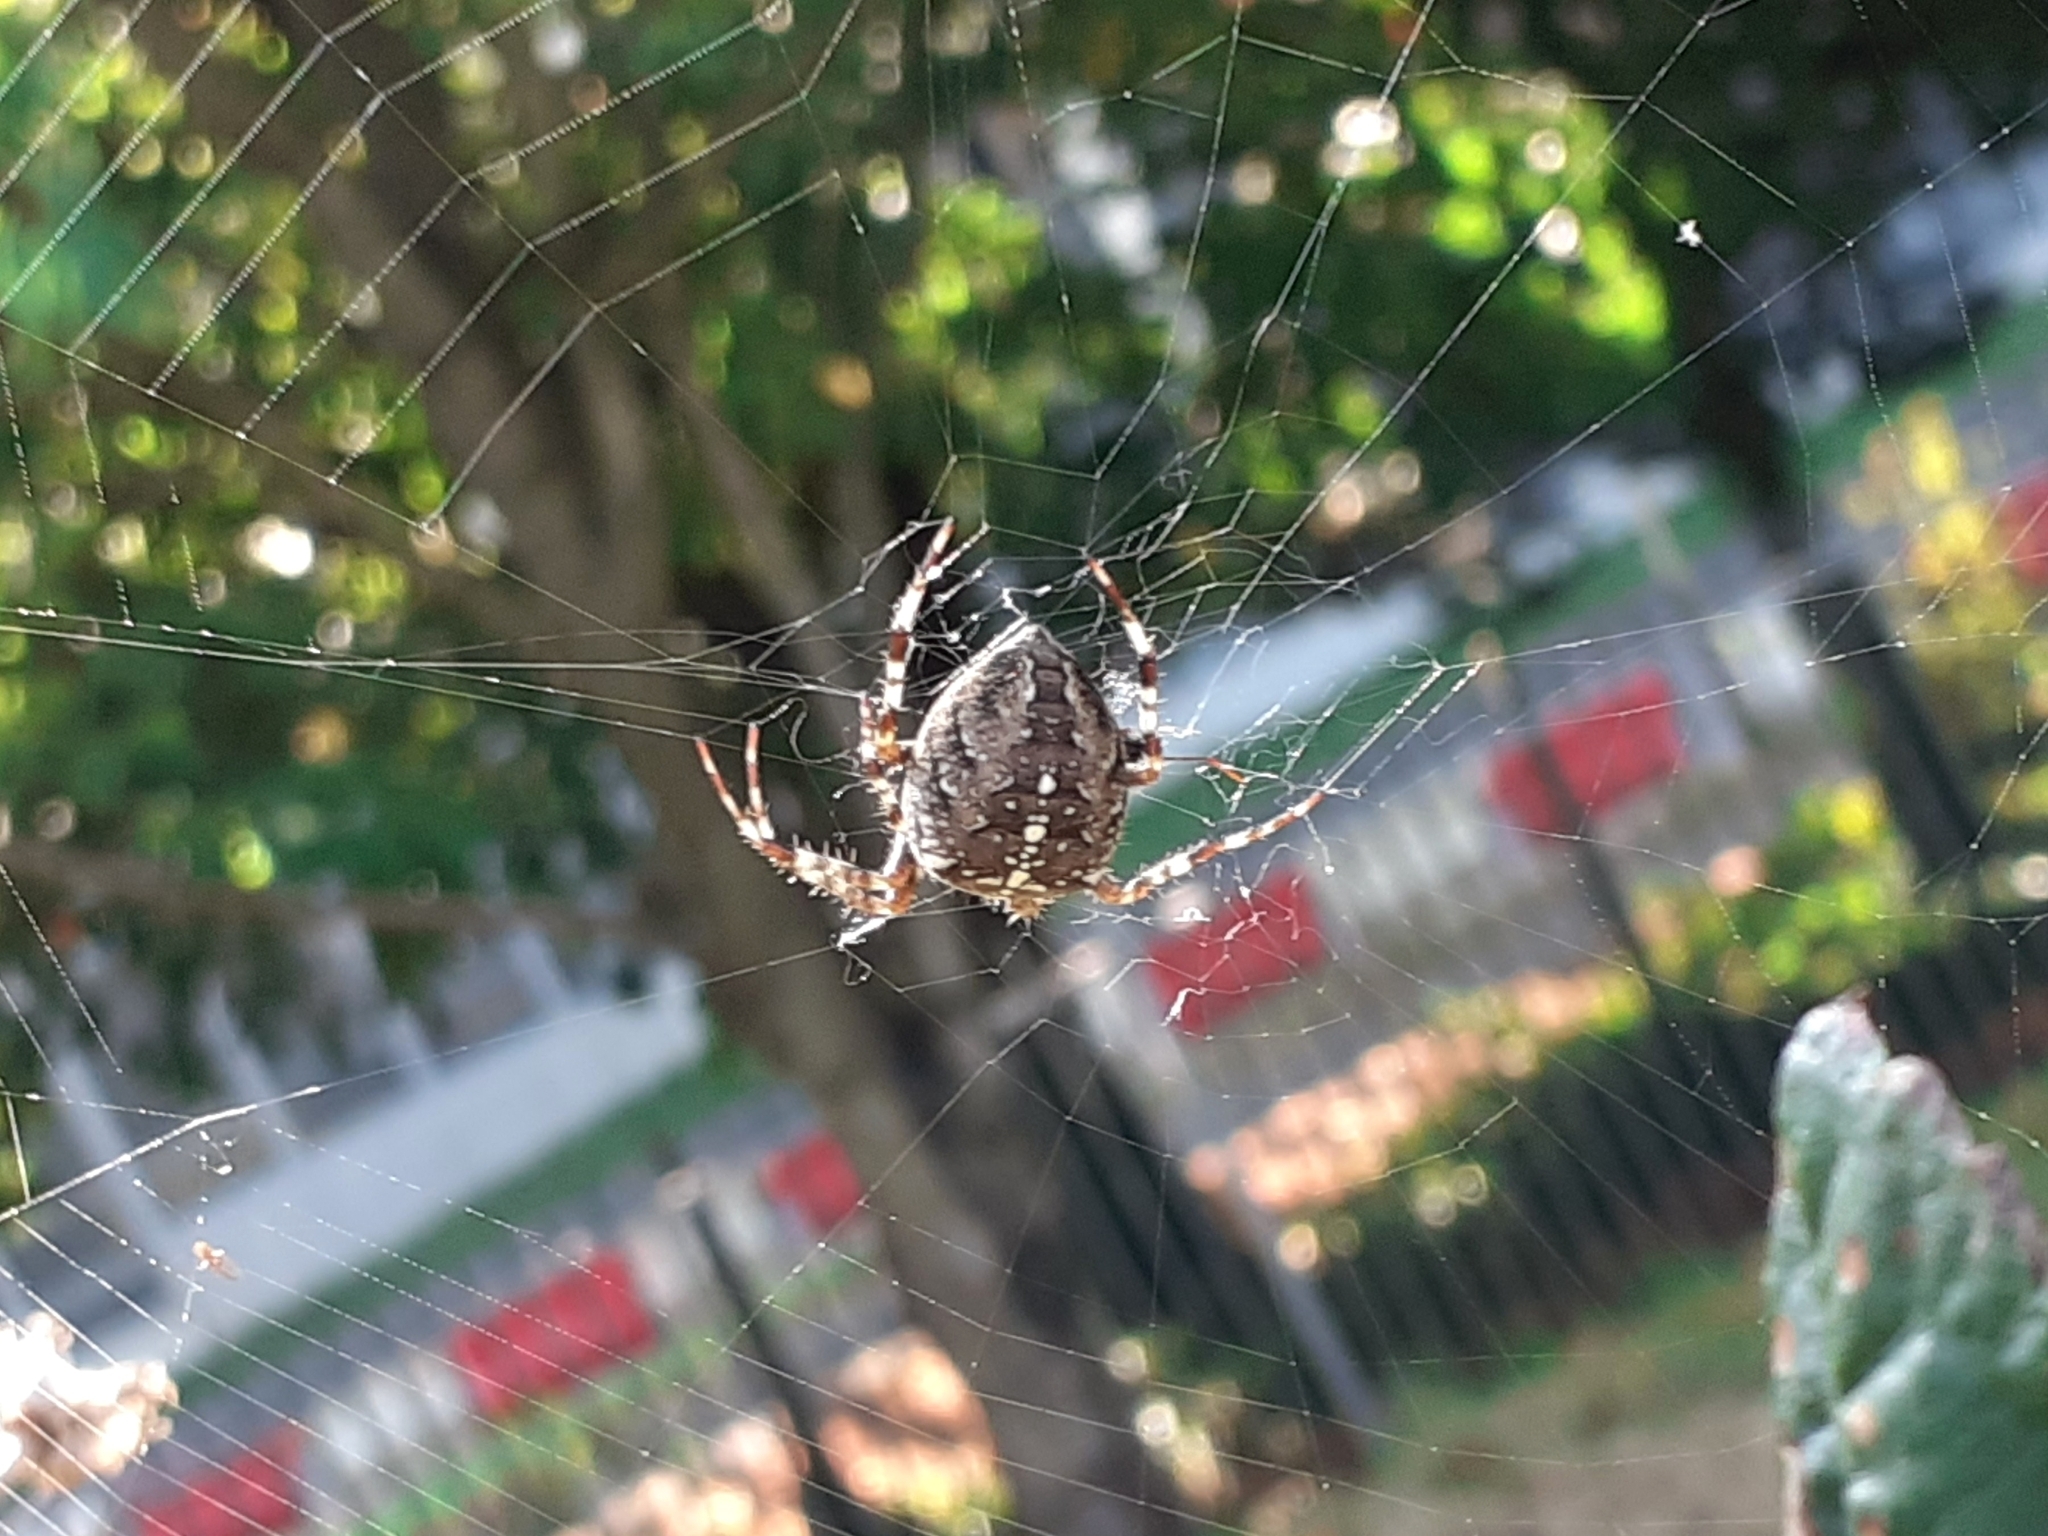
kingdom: Animalia
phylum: Arthropoda
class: Arachnida
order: Araneae
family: Araneidae
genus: Araneus
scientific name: Araneus diadematus
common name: Cross orbweaver
